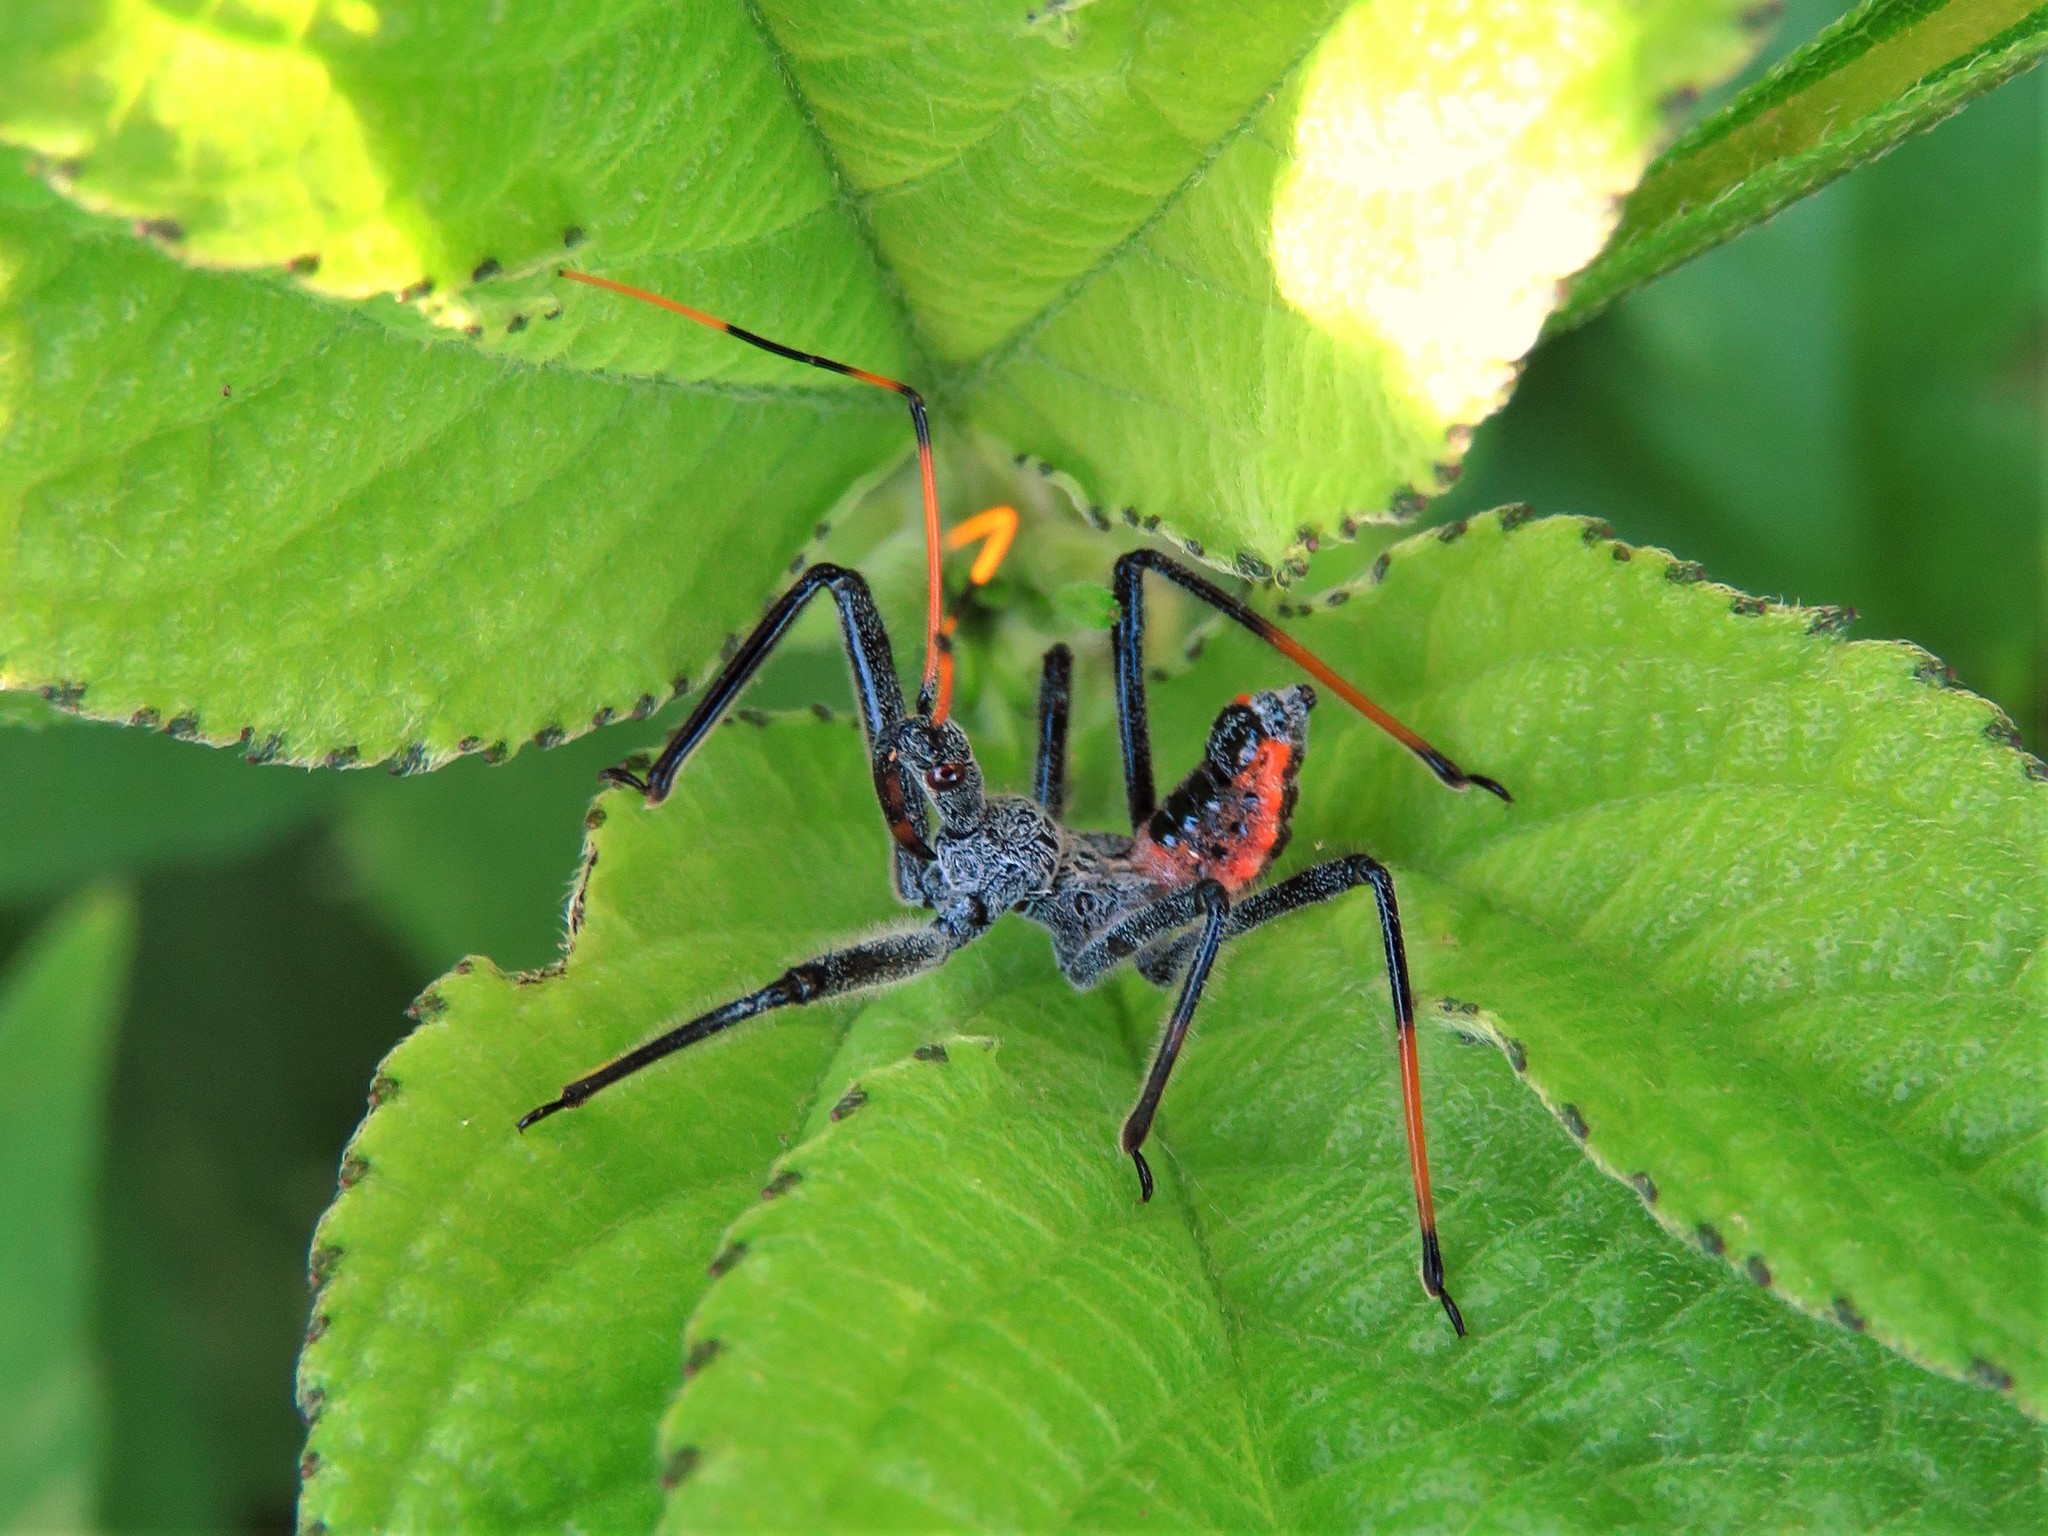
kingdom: Animalia
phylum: Arthropoda
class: Insecta
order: Hemiptera
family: Reduviidae
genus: Arilus
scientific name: Arilus cristatus
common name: North american wheel bug
